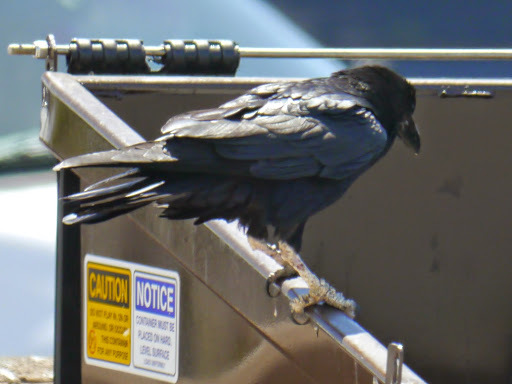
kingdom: Animalia
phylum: Chordata
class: Aves
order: Passeriformes
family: Corvidae
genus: Corvus
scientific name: Corvus cryptoleucus
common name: Chihuahuan raven
